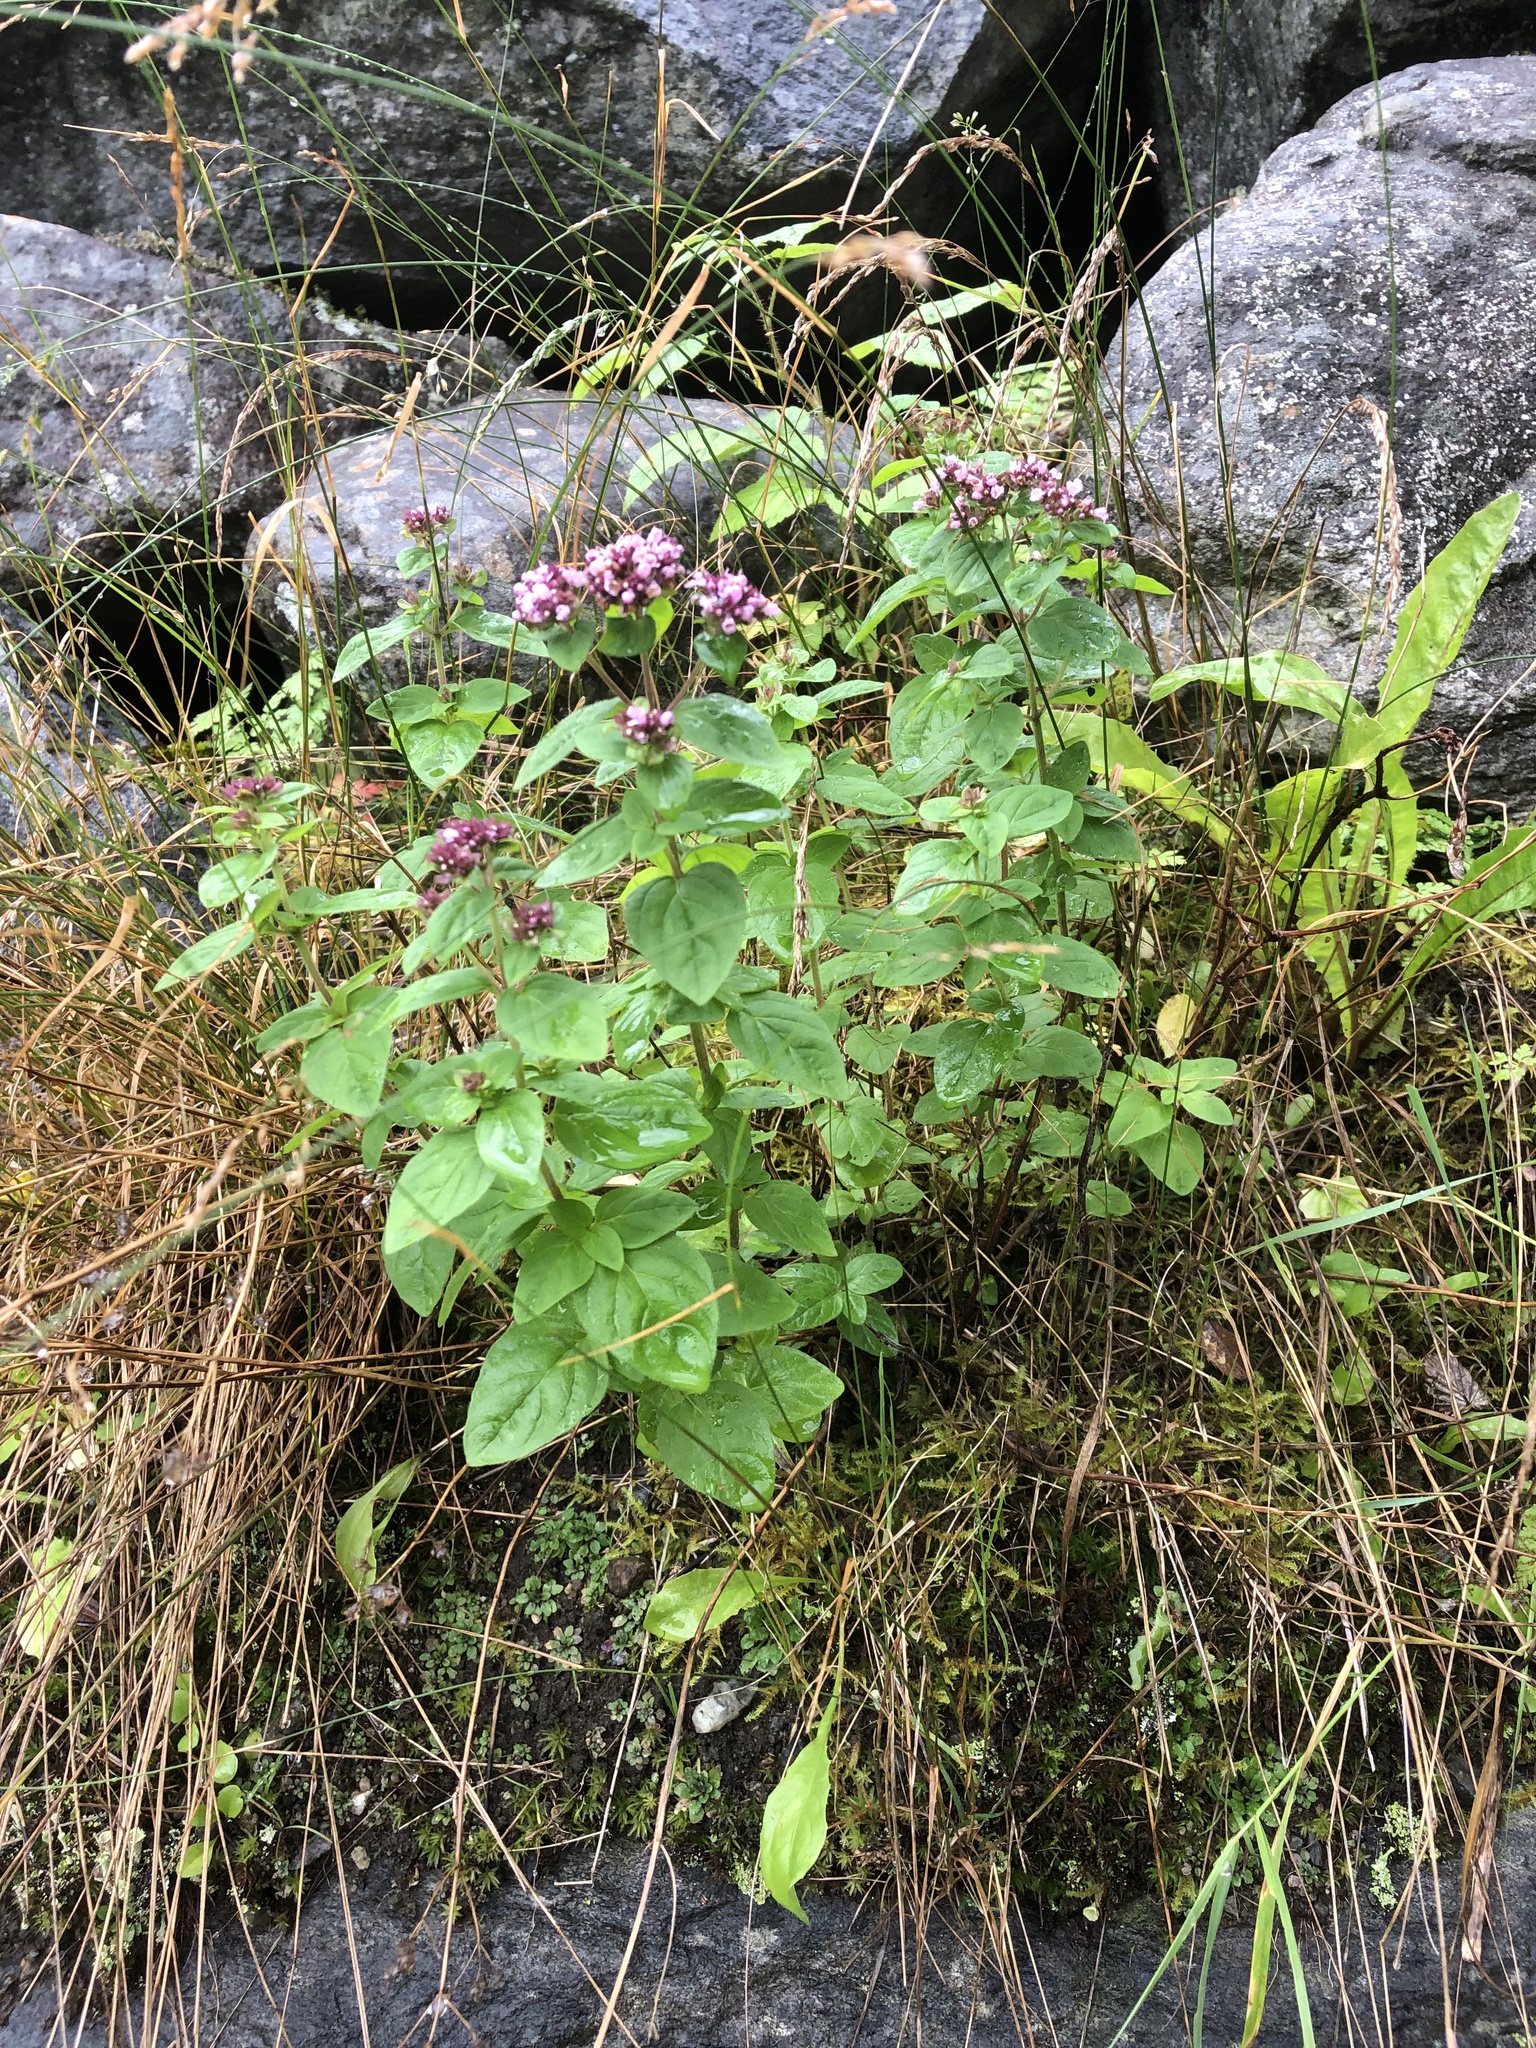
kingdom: Plantae
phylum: Tracheophyta
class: Magnoliopsida
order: Lamiales
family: Lamiaceae
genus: Origanum
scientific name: Origanum vulgare
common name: Wild marjoram
